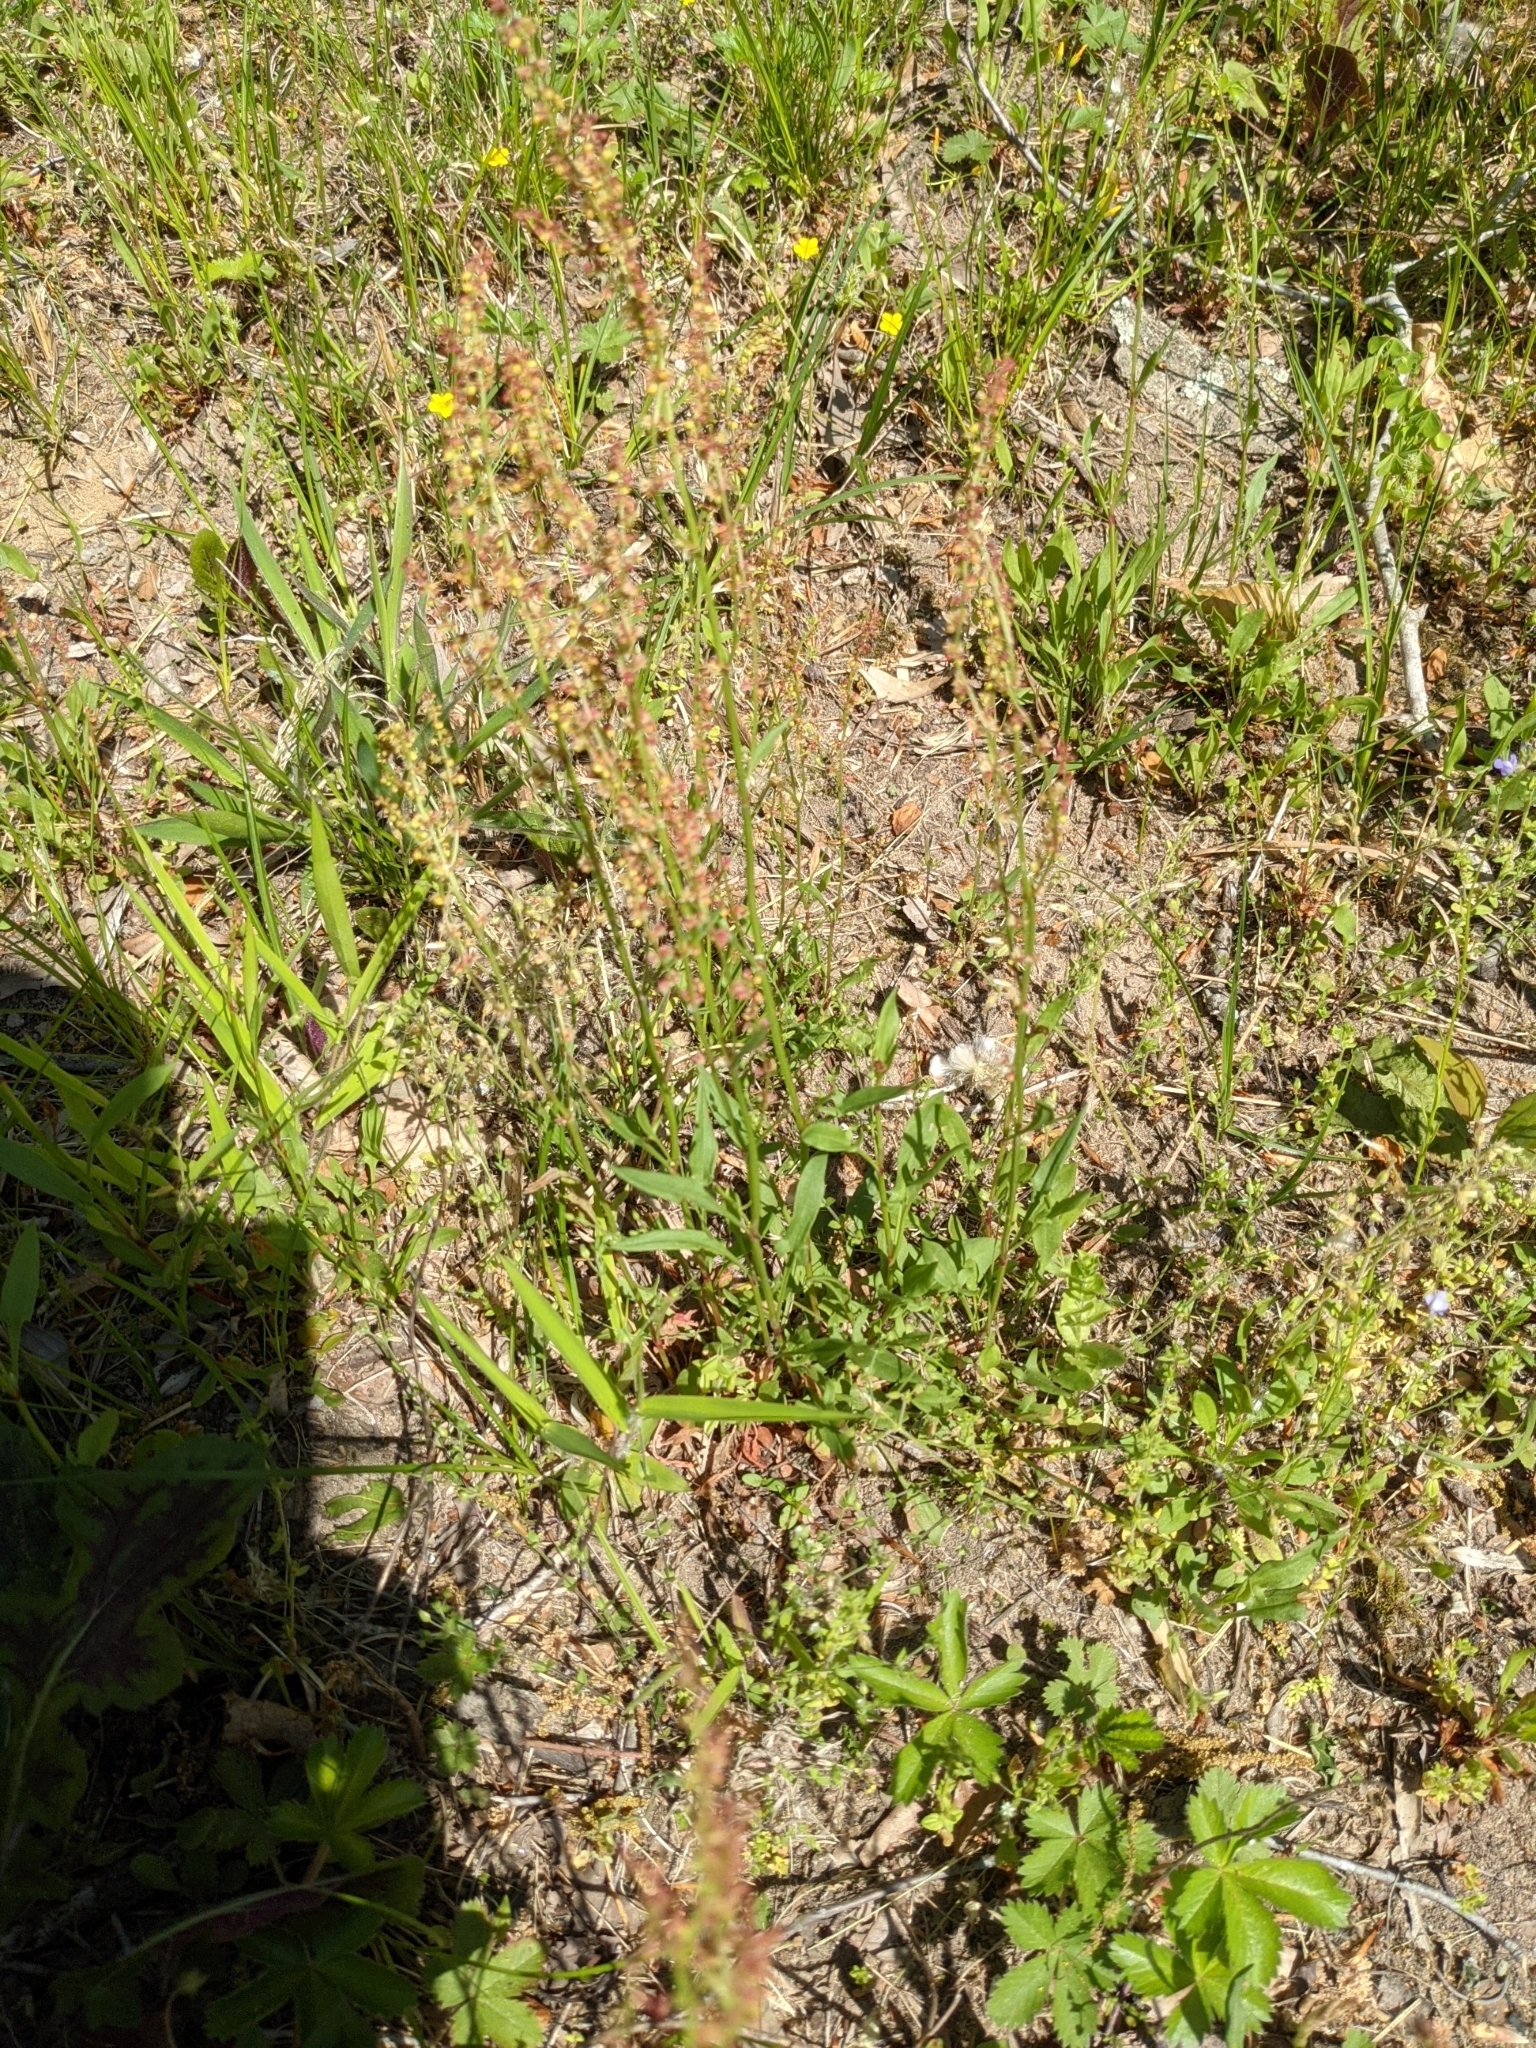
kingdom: Plantae
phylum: Tracheophyta
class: Magnoliopsida
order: Caryophyllales
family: Polygonaceae
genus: Rumex
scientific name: Rumex acetosella
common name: Common sheep sorrel
